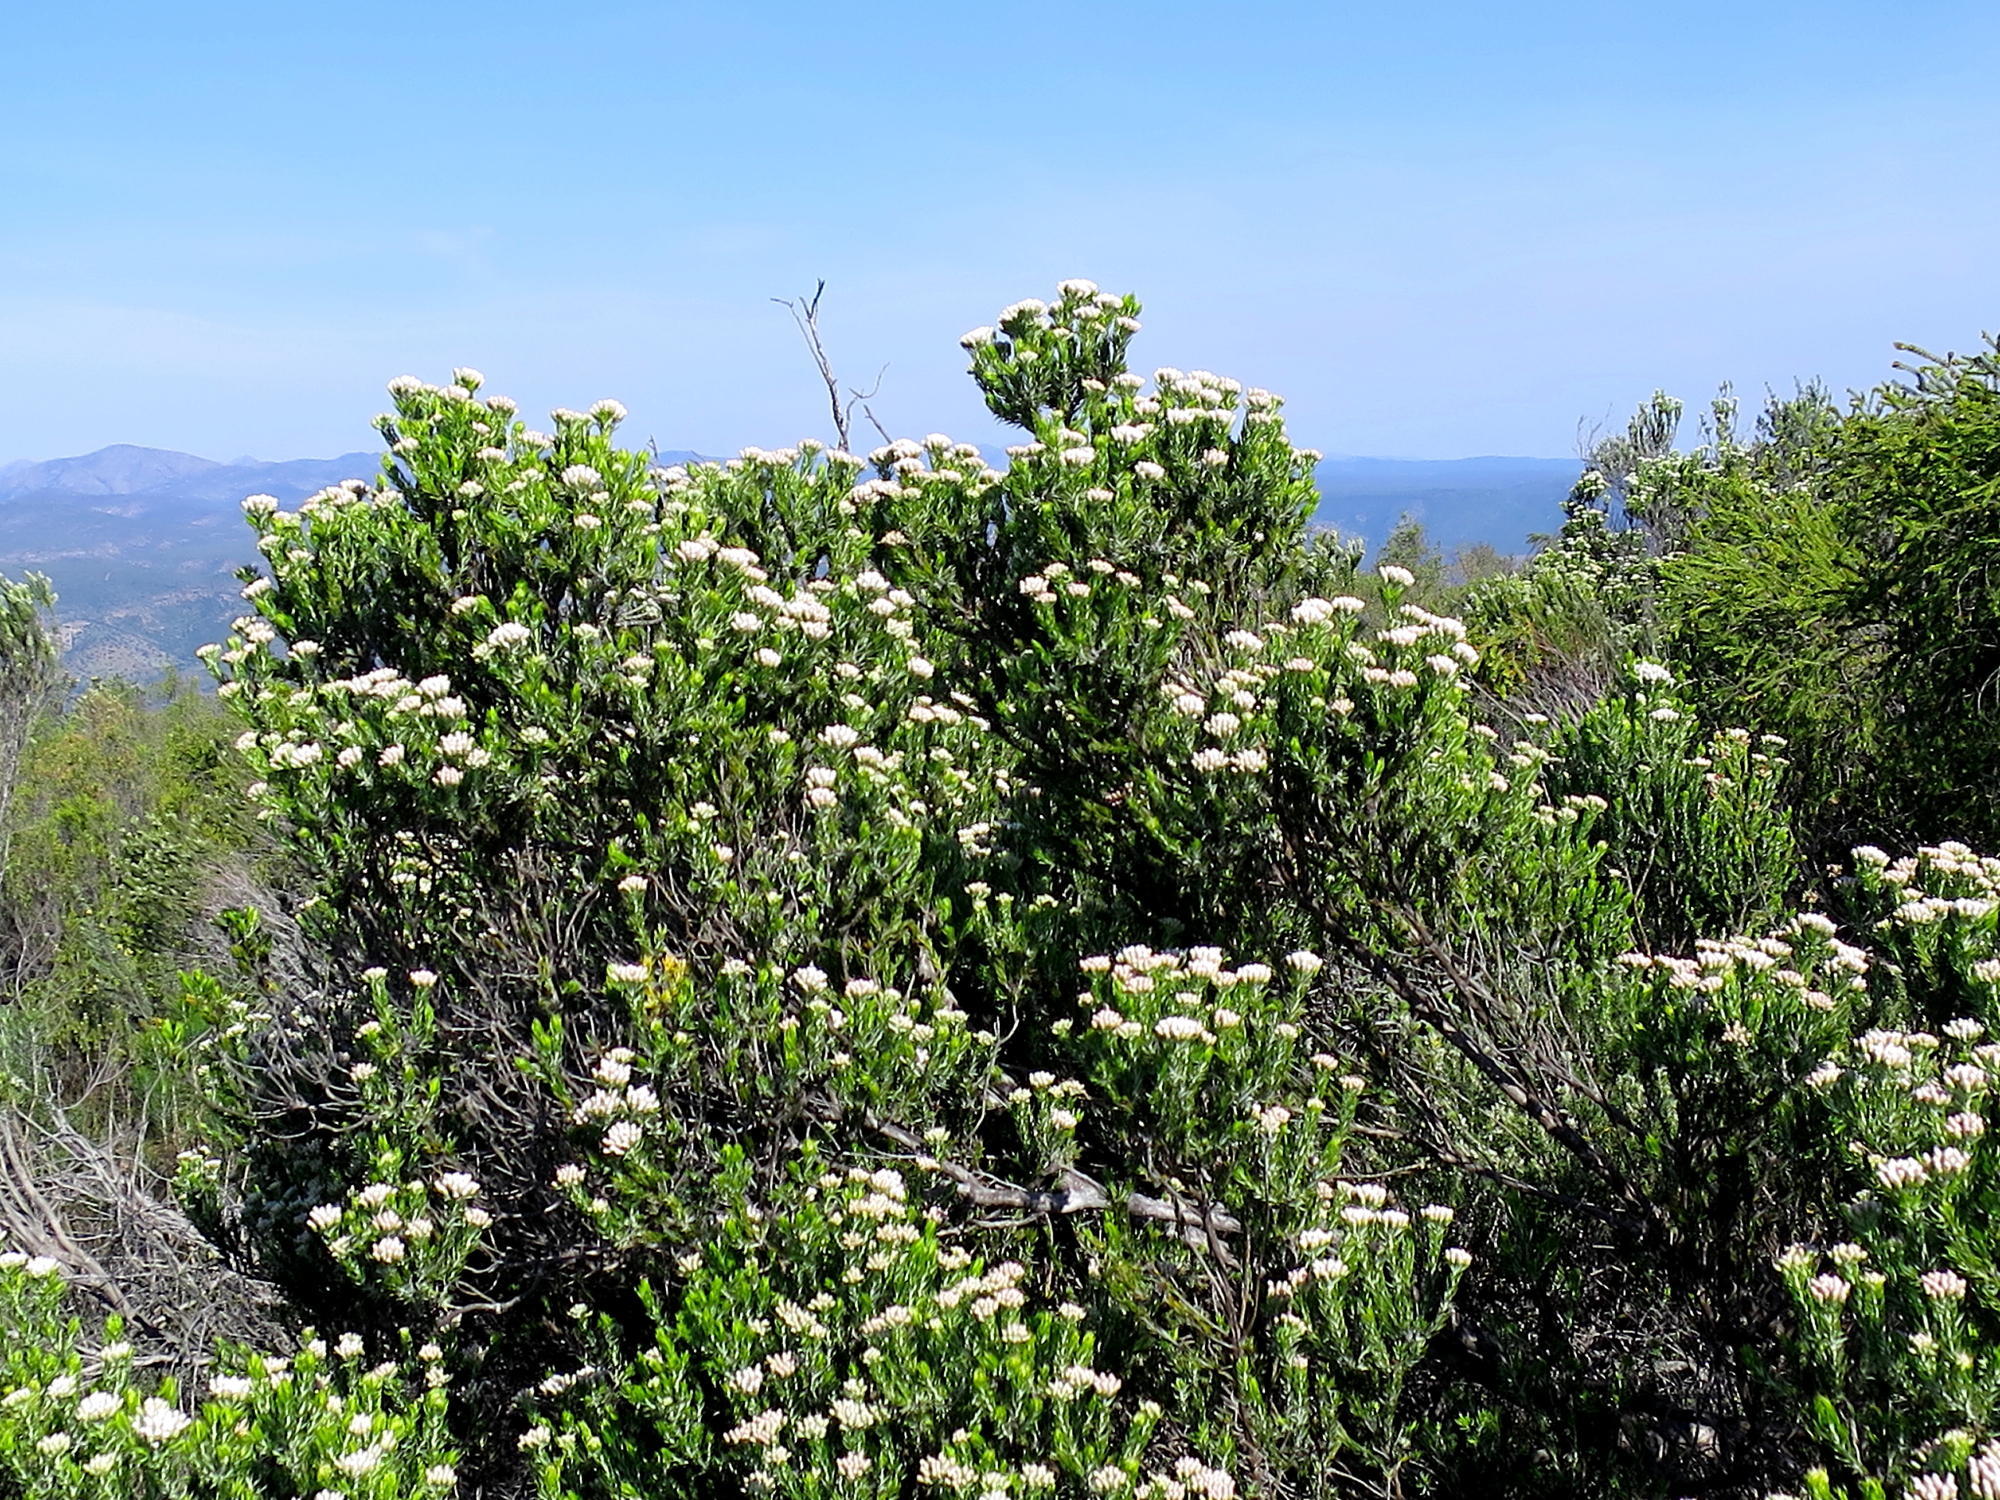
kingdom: Plantae
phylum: Tracheophyta
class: Magnoliopsida
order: Asterales
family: Asteraceae
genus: Metalasia
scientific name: Metalasia pallida
